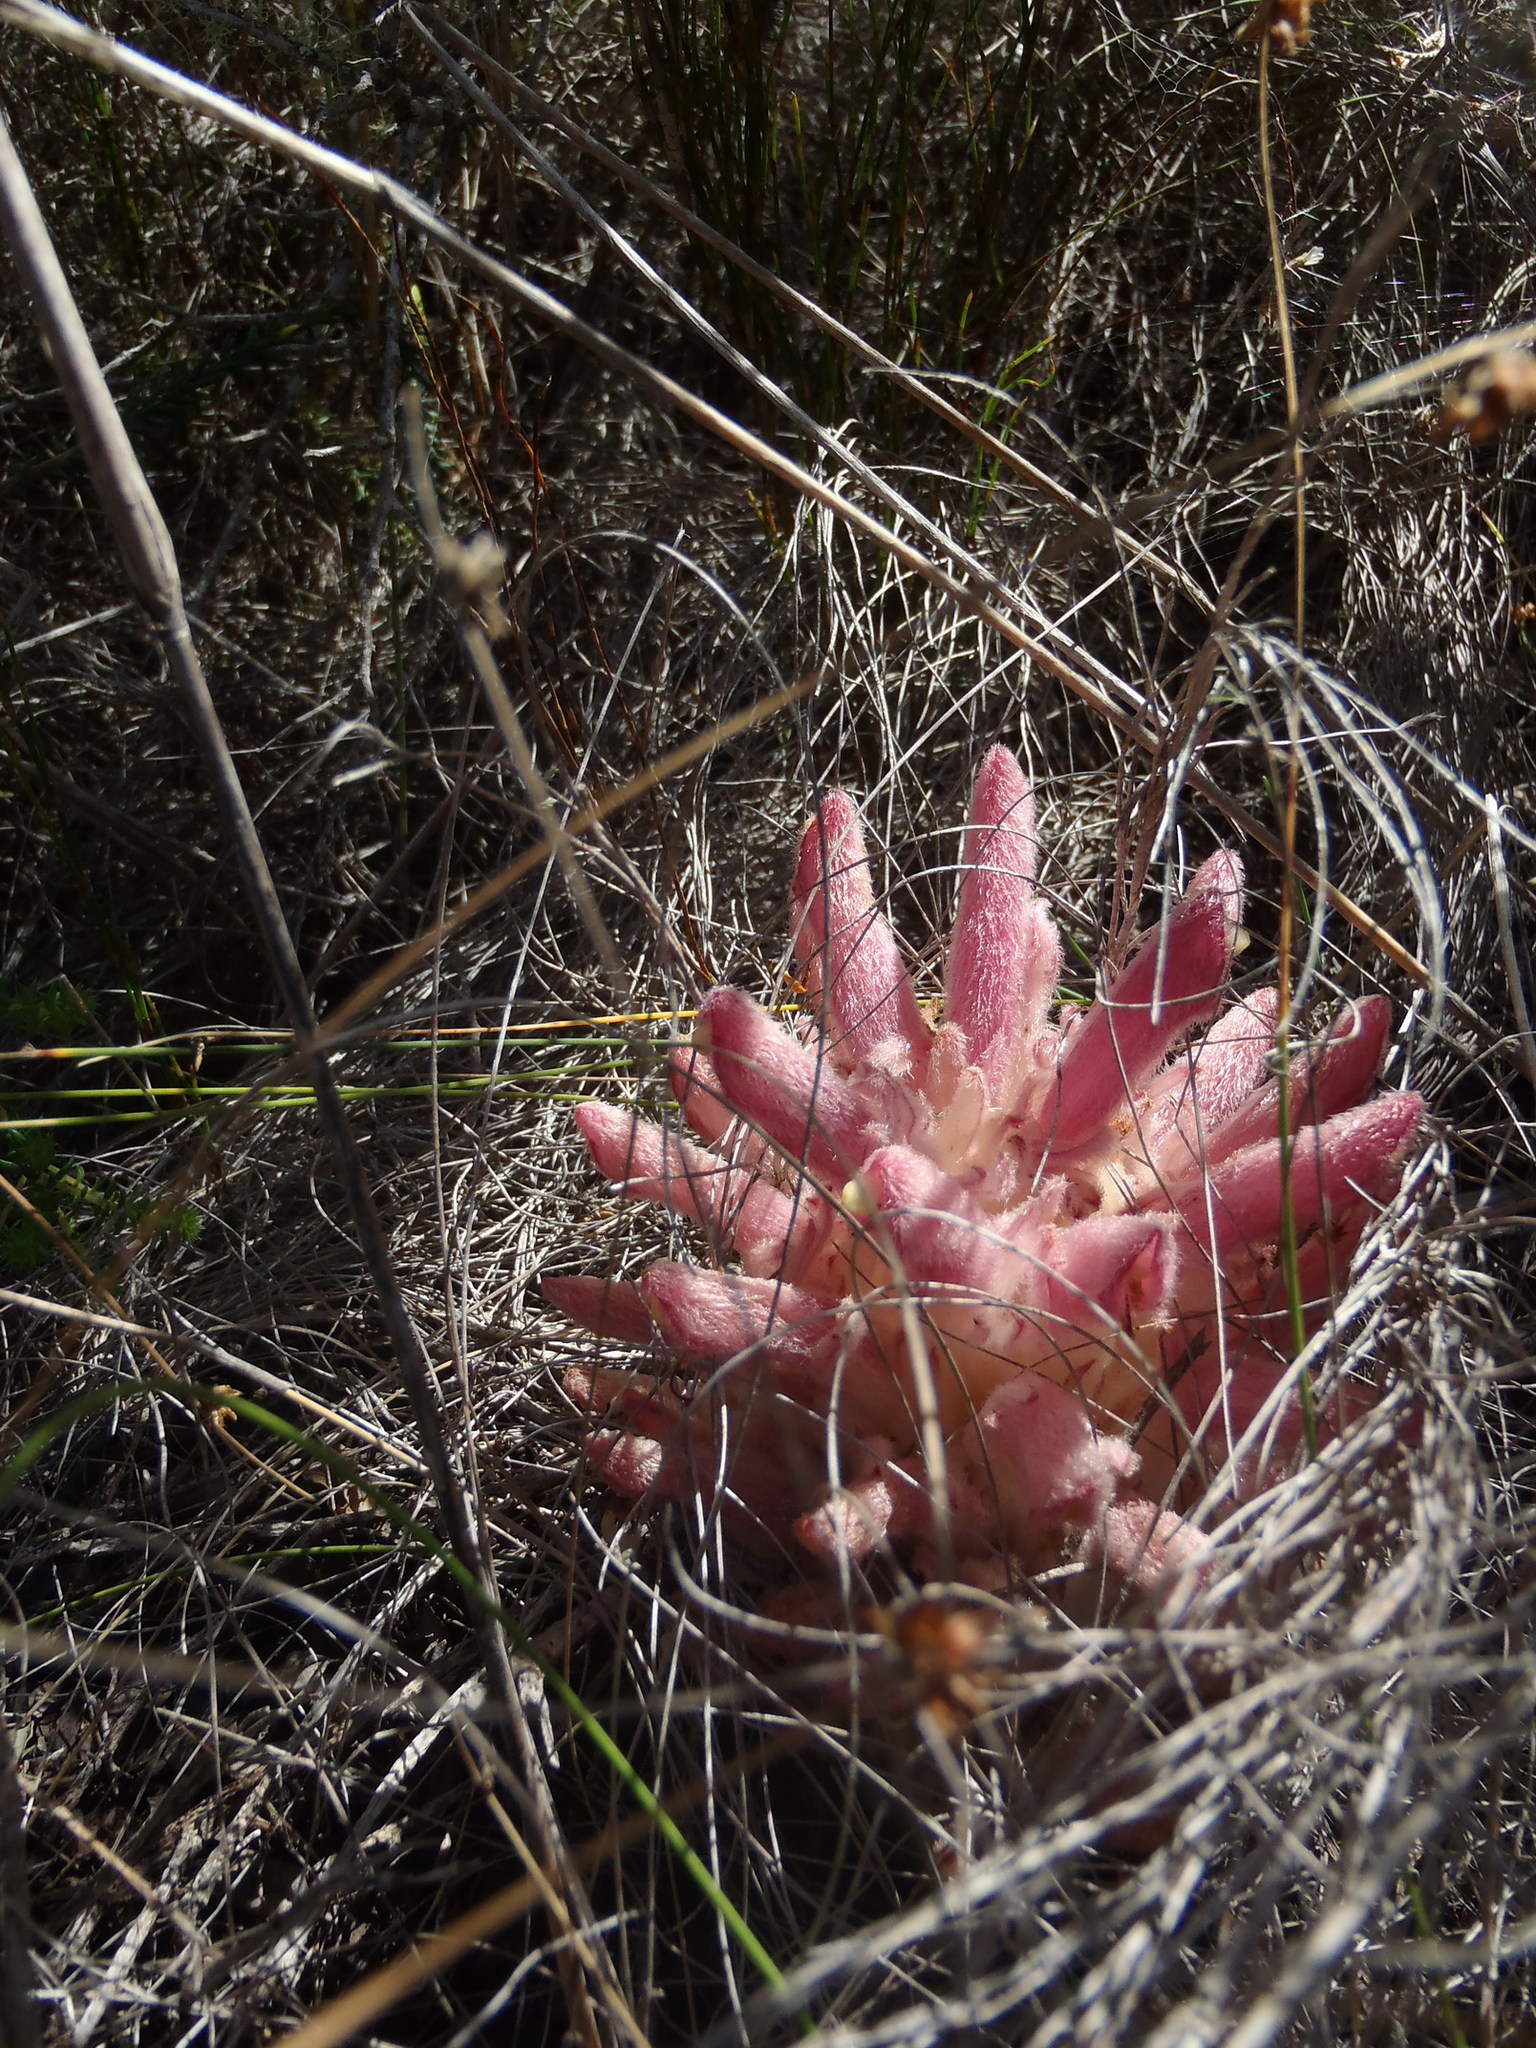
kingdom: Plantae
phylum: Tracheophyta
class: Magnoliopsida
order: Lamiales
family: Orobanchaceae
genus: Hyobanche
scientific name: Hyobanche rubra
